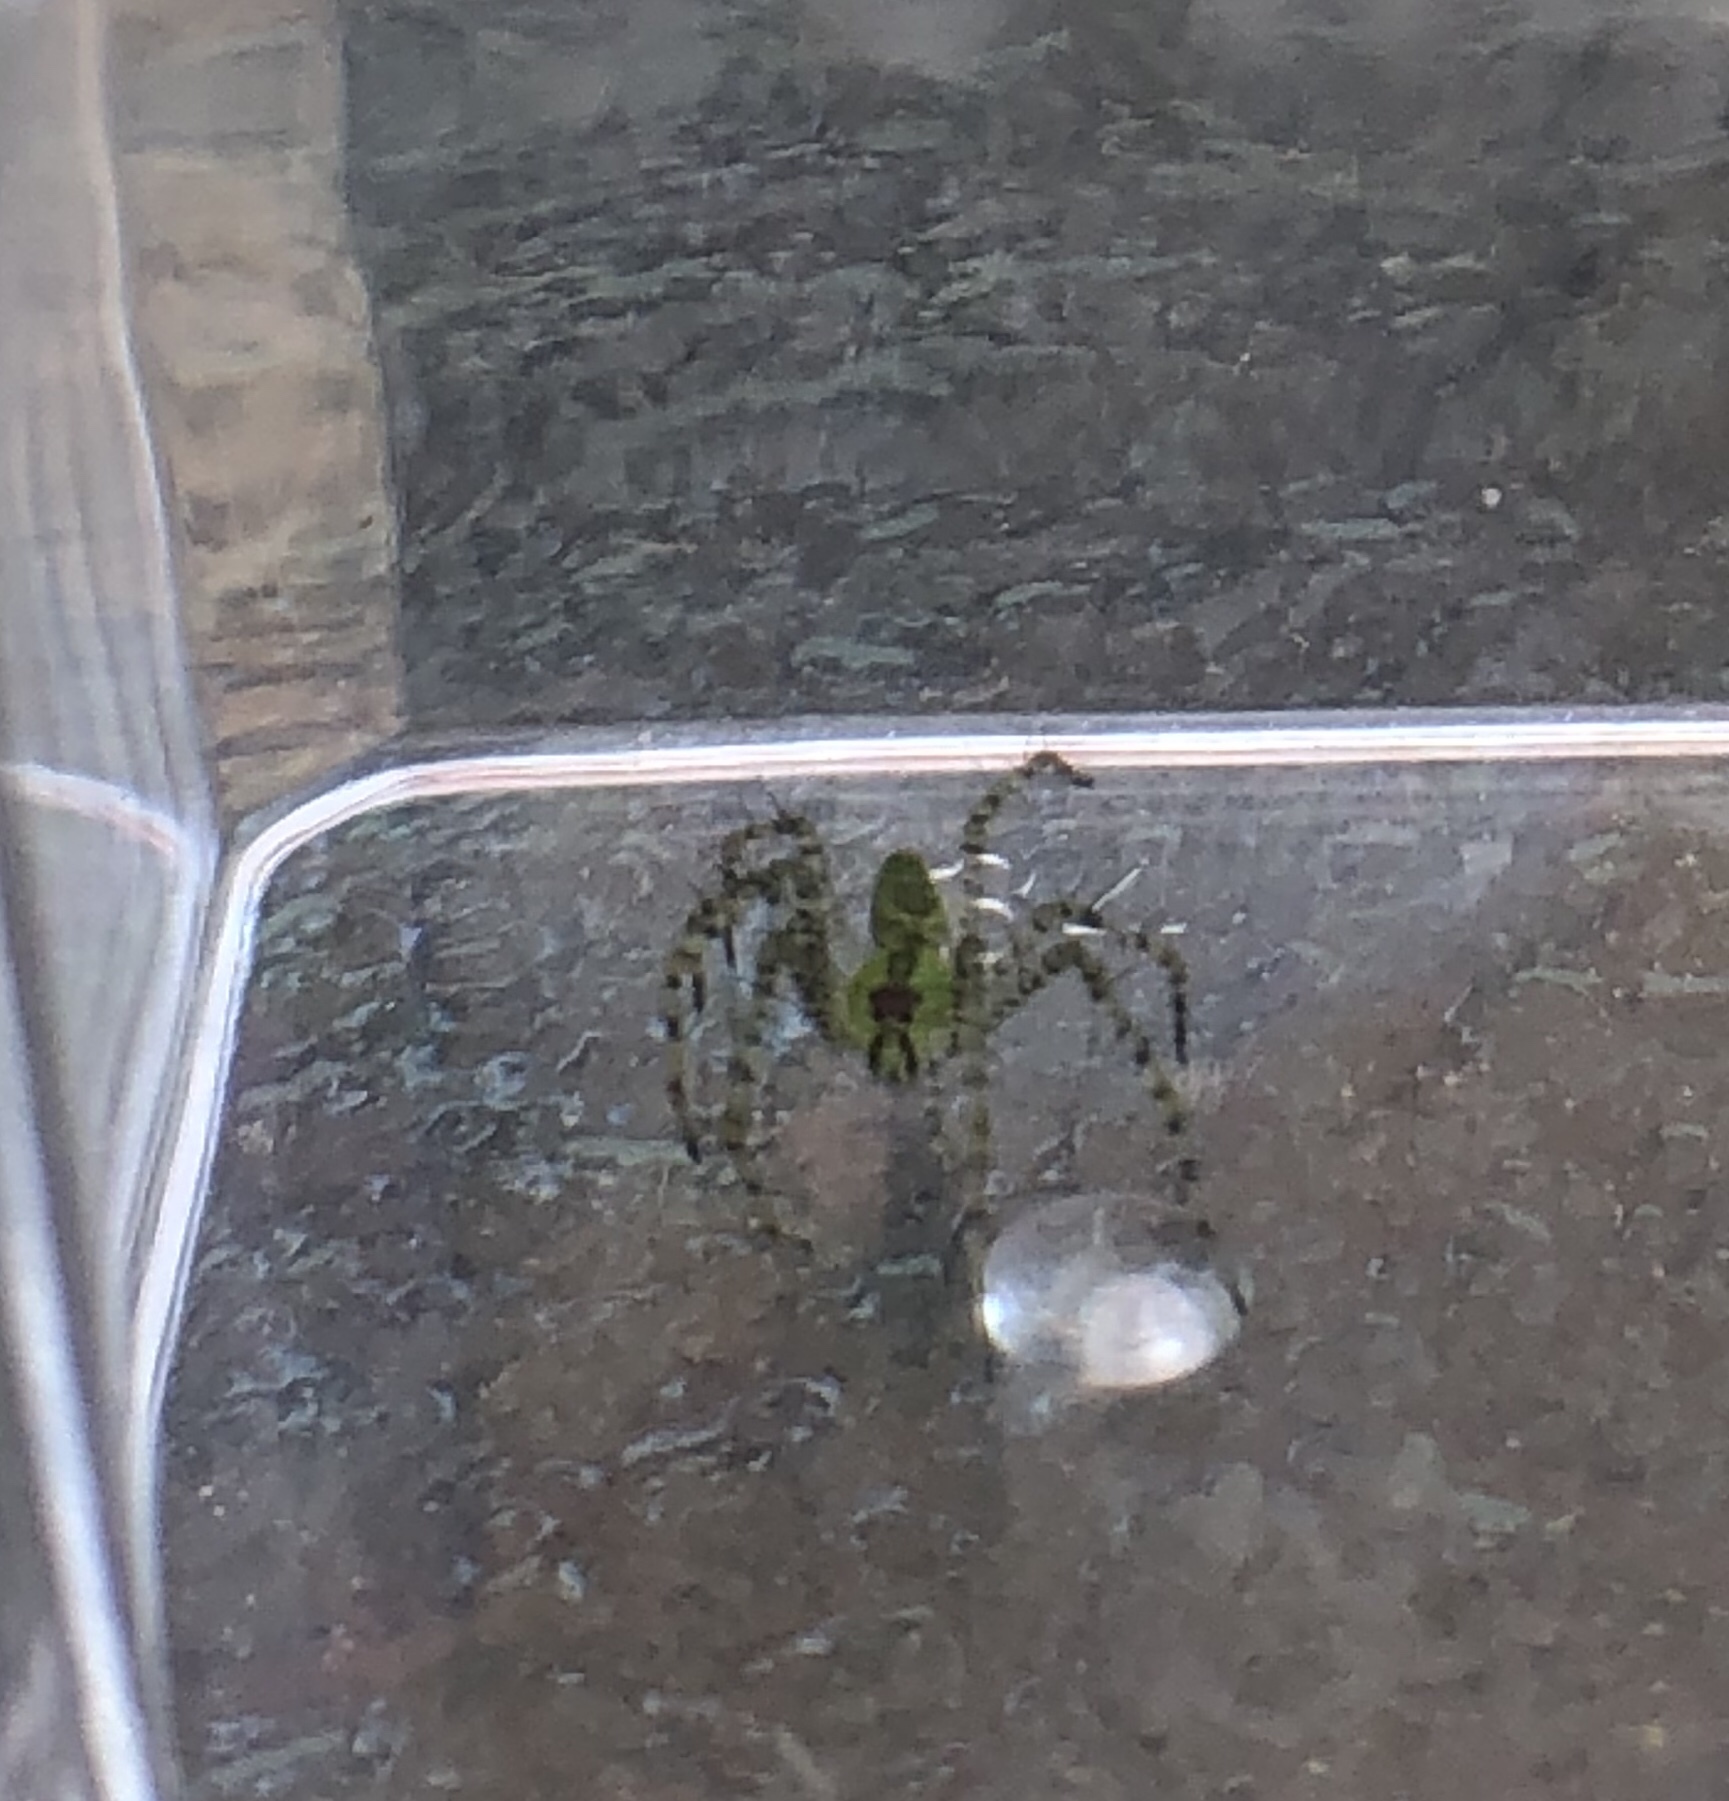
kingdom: Animalia
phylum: Arthropoda
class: Arachnida
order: Araneae
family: Oxyopidae
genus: Peucetia
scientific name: Peucetia viridans
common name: Lynx spiders
